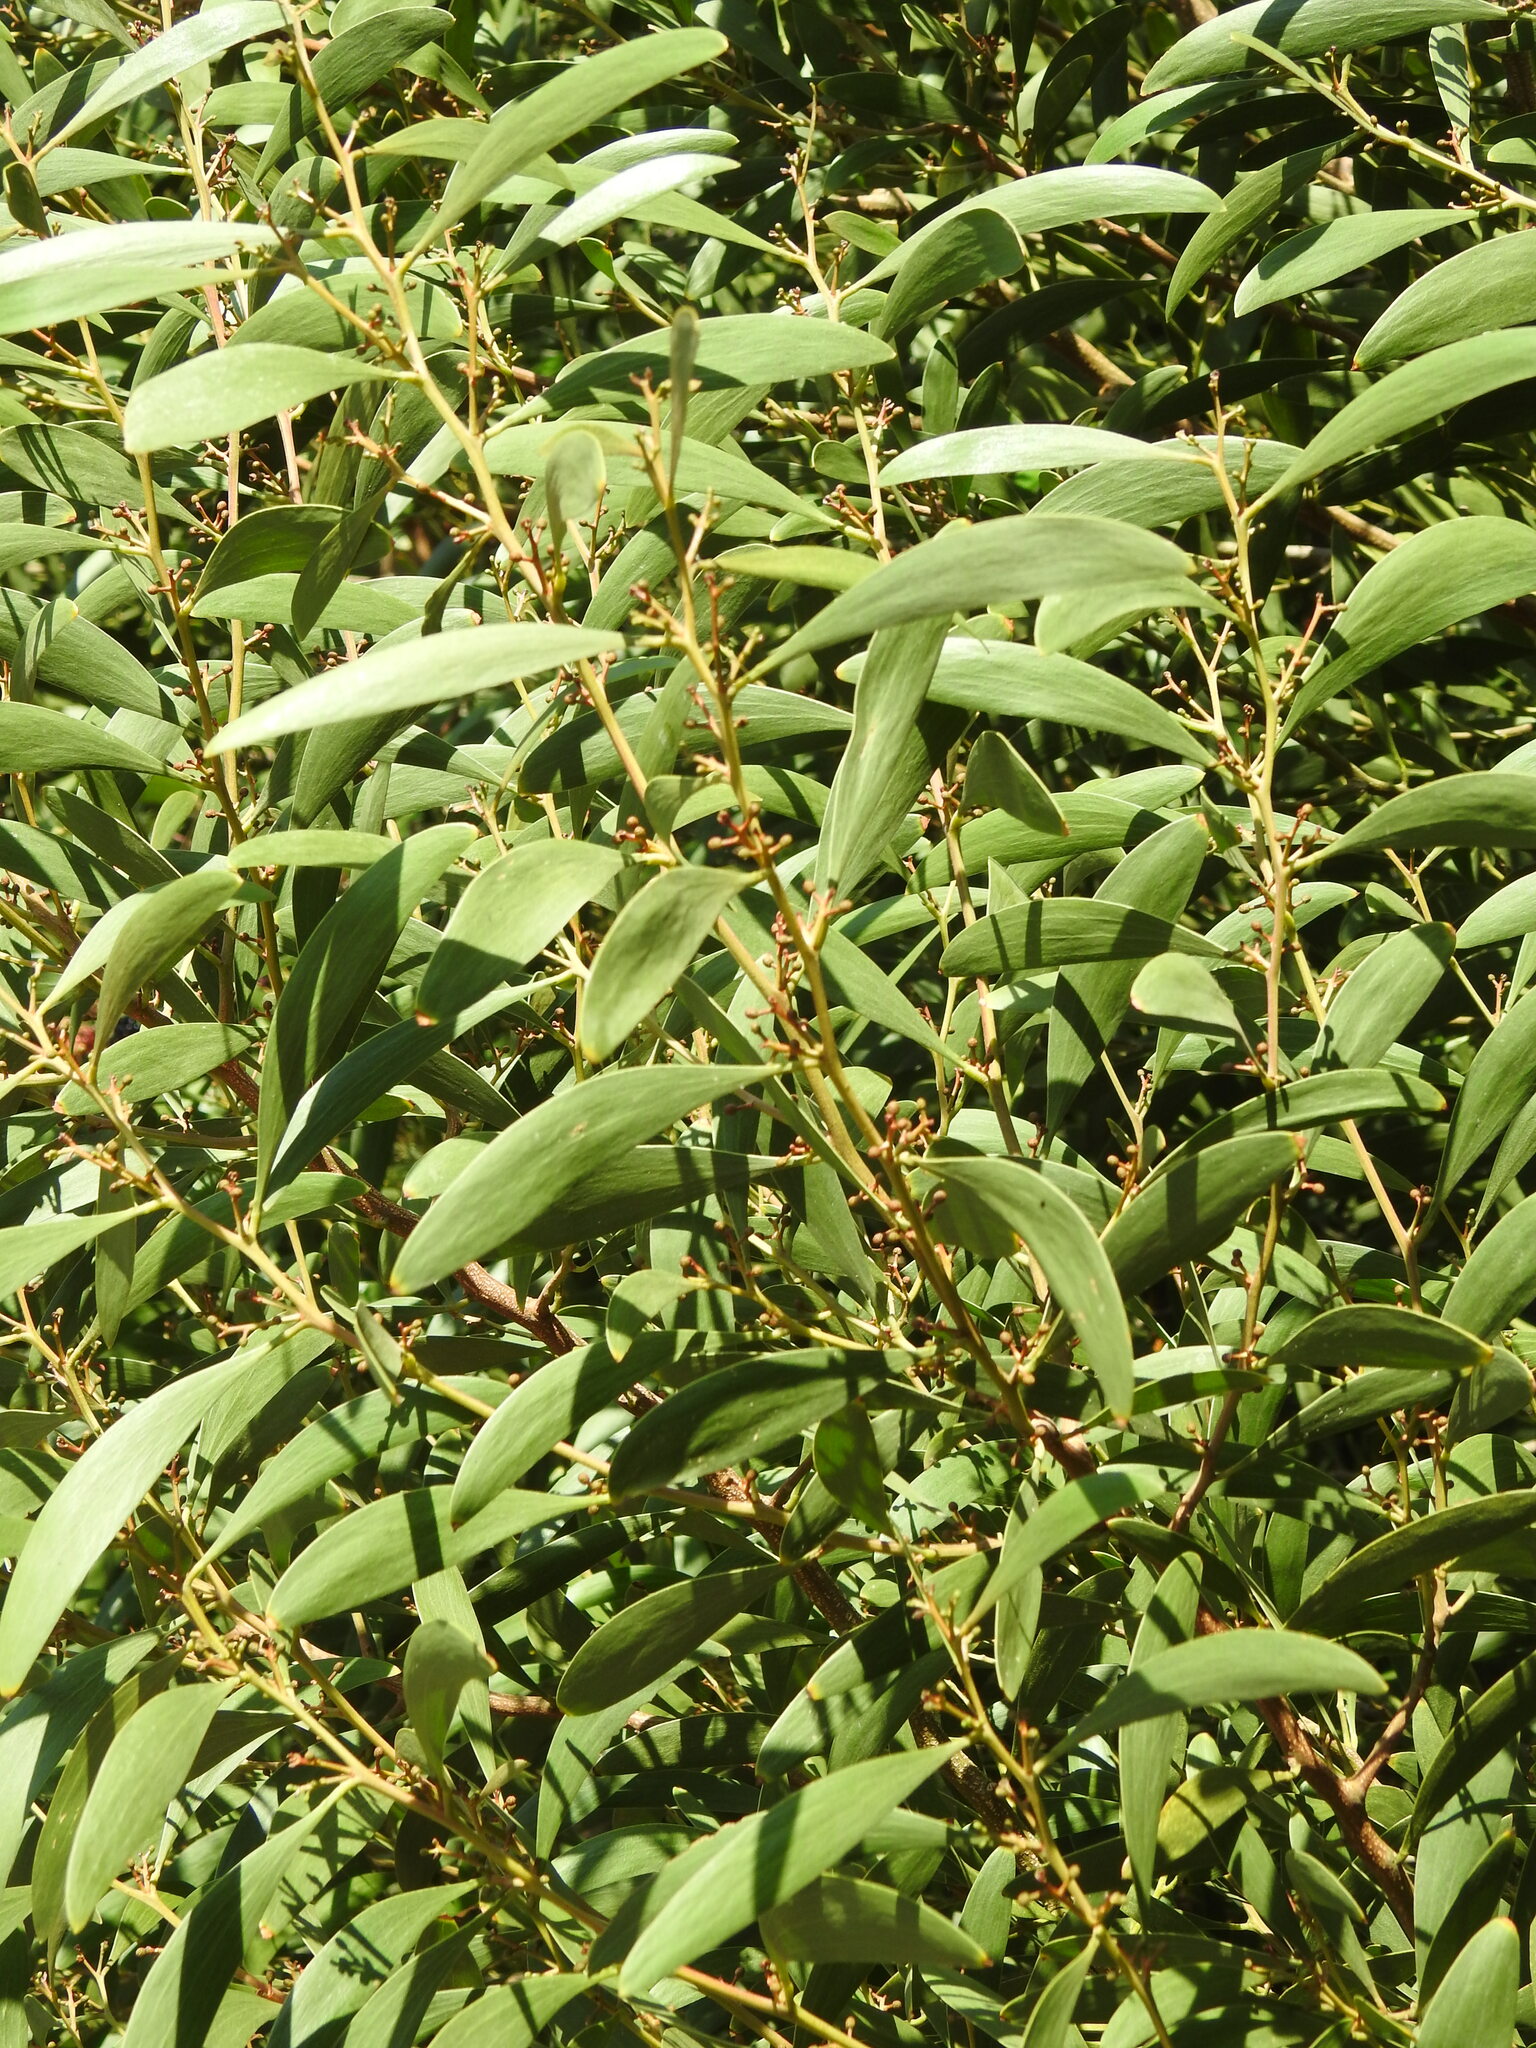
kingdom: Plantae
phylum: Tracheophyta
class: Magnoliopsida
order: Fabales
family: Fabaceae
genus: Acacia
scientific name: Acacia melanoxylon
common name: Blackwood
